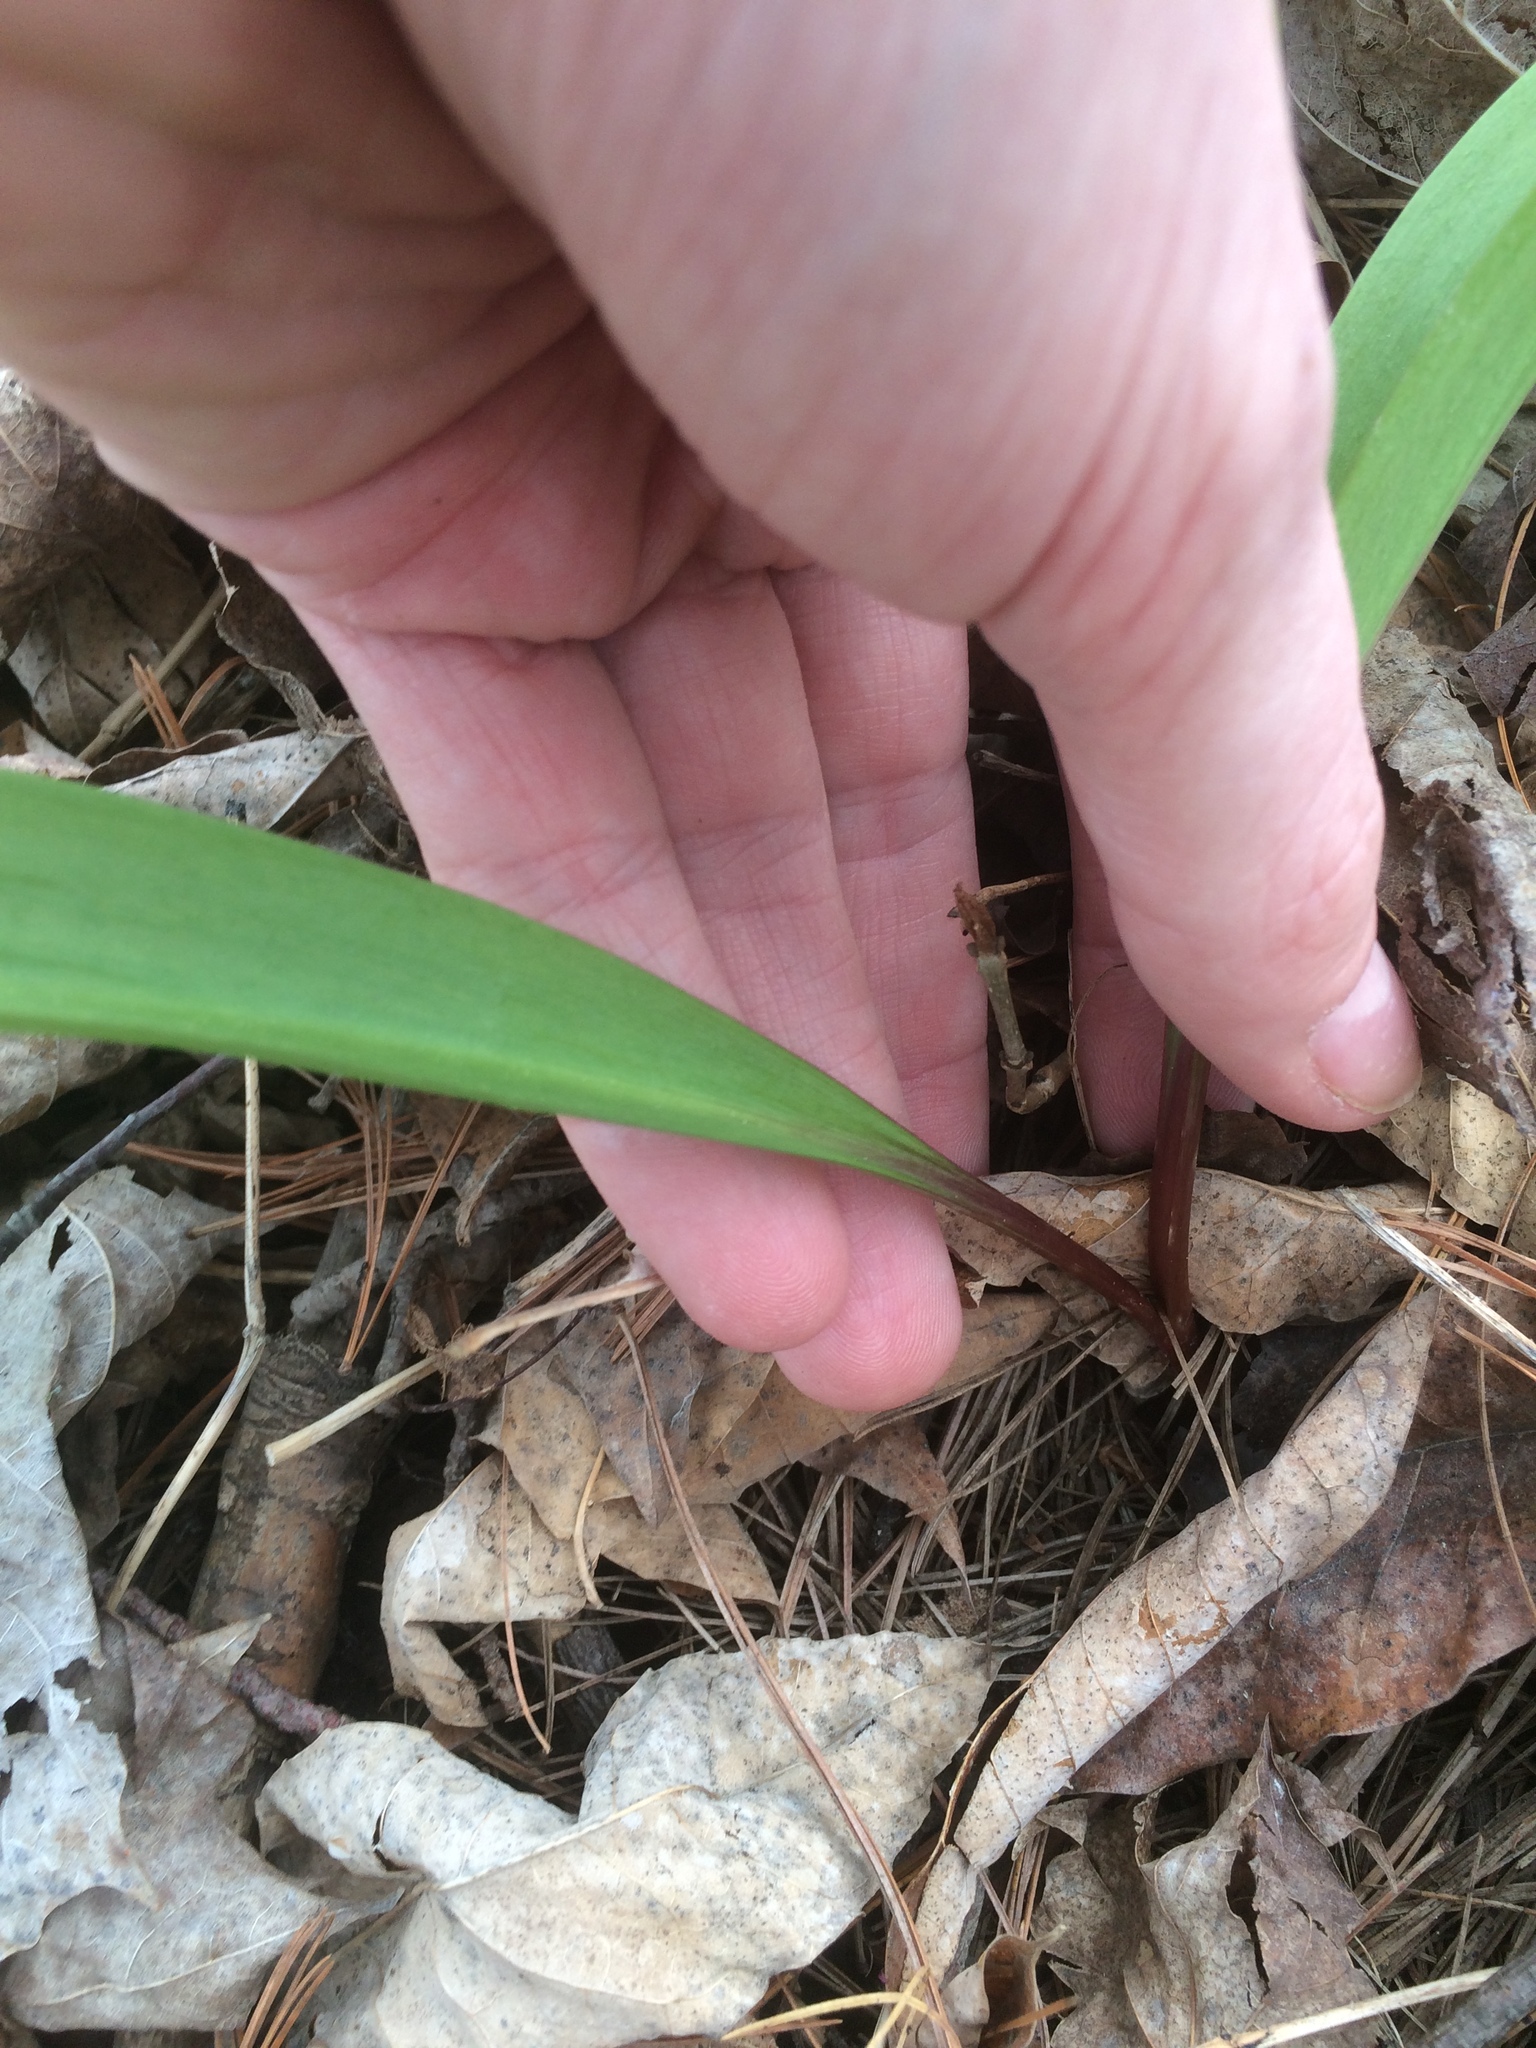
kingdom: Plantae
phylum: Tracheophyta
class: Liliopsida
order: Asparagales
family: Amaryllidaceae
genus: Allium
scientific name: Allium tricoccum
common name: Ramp
